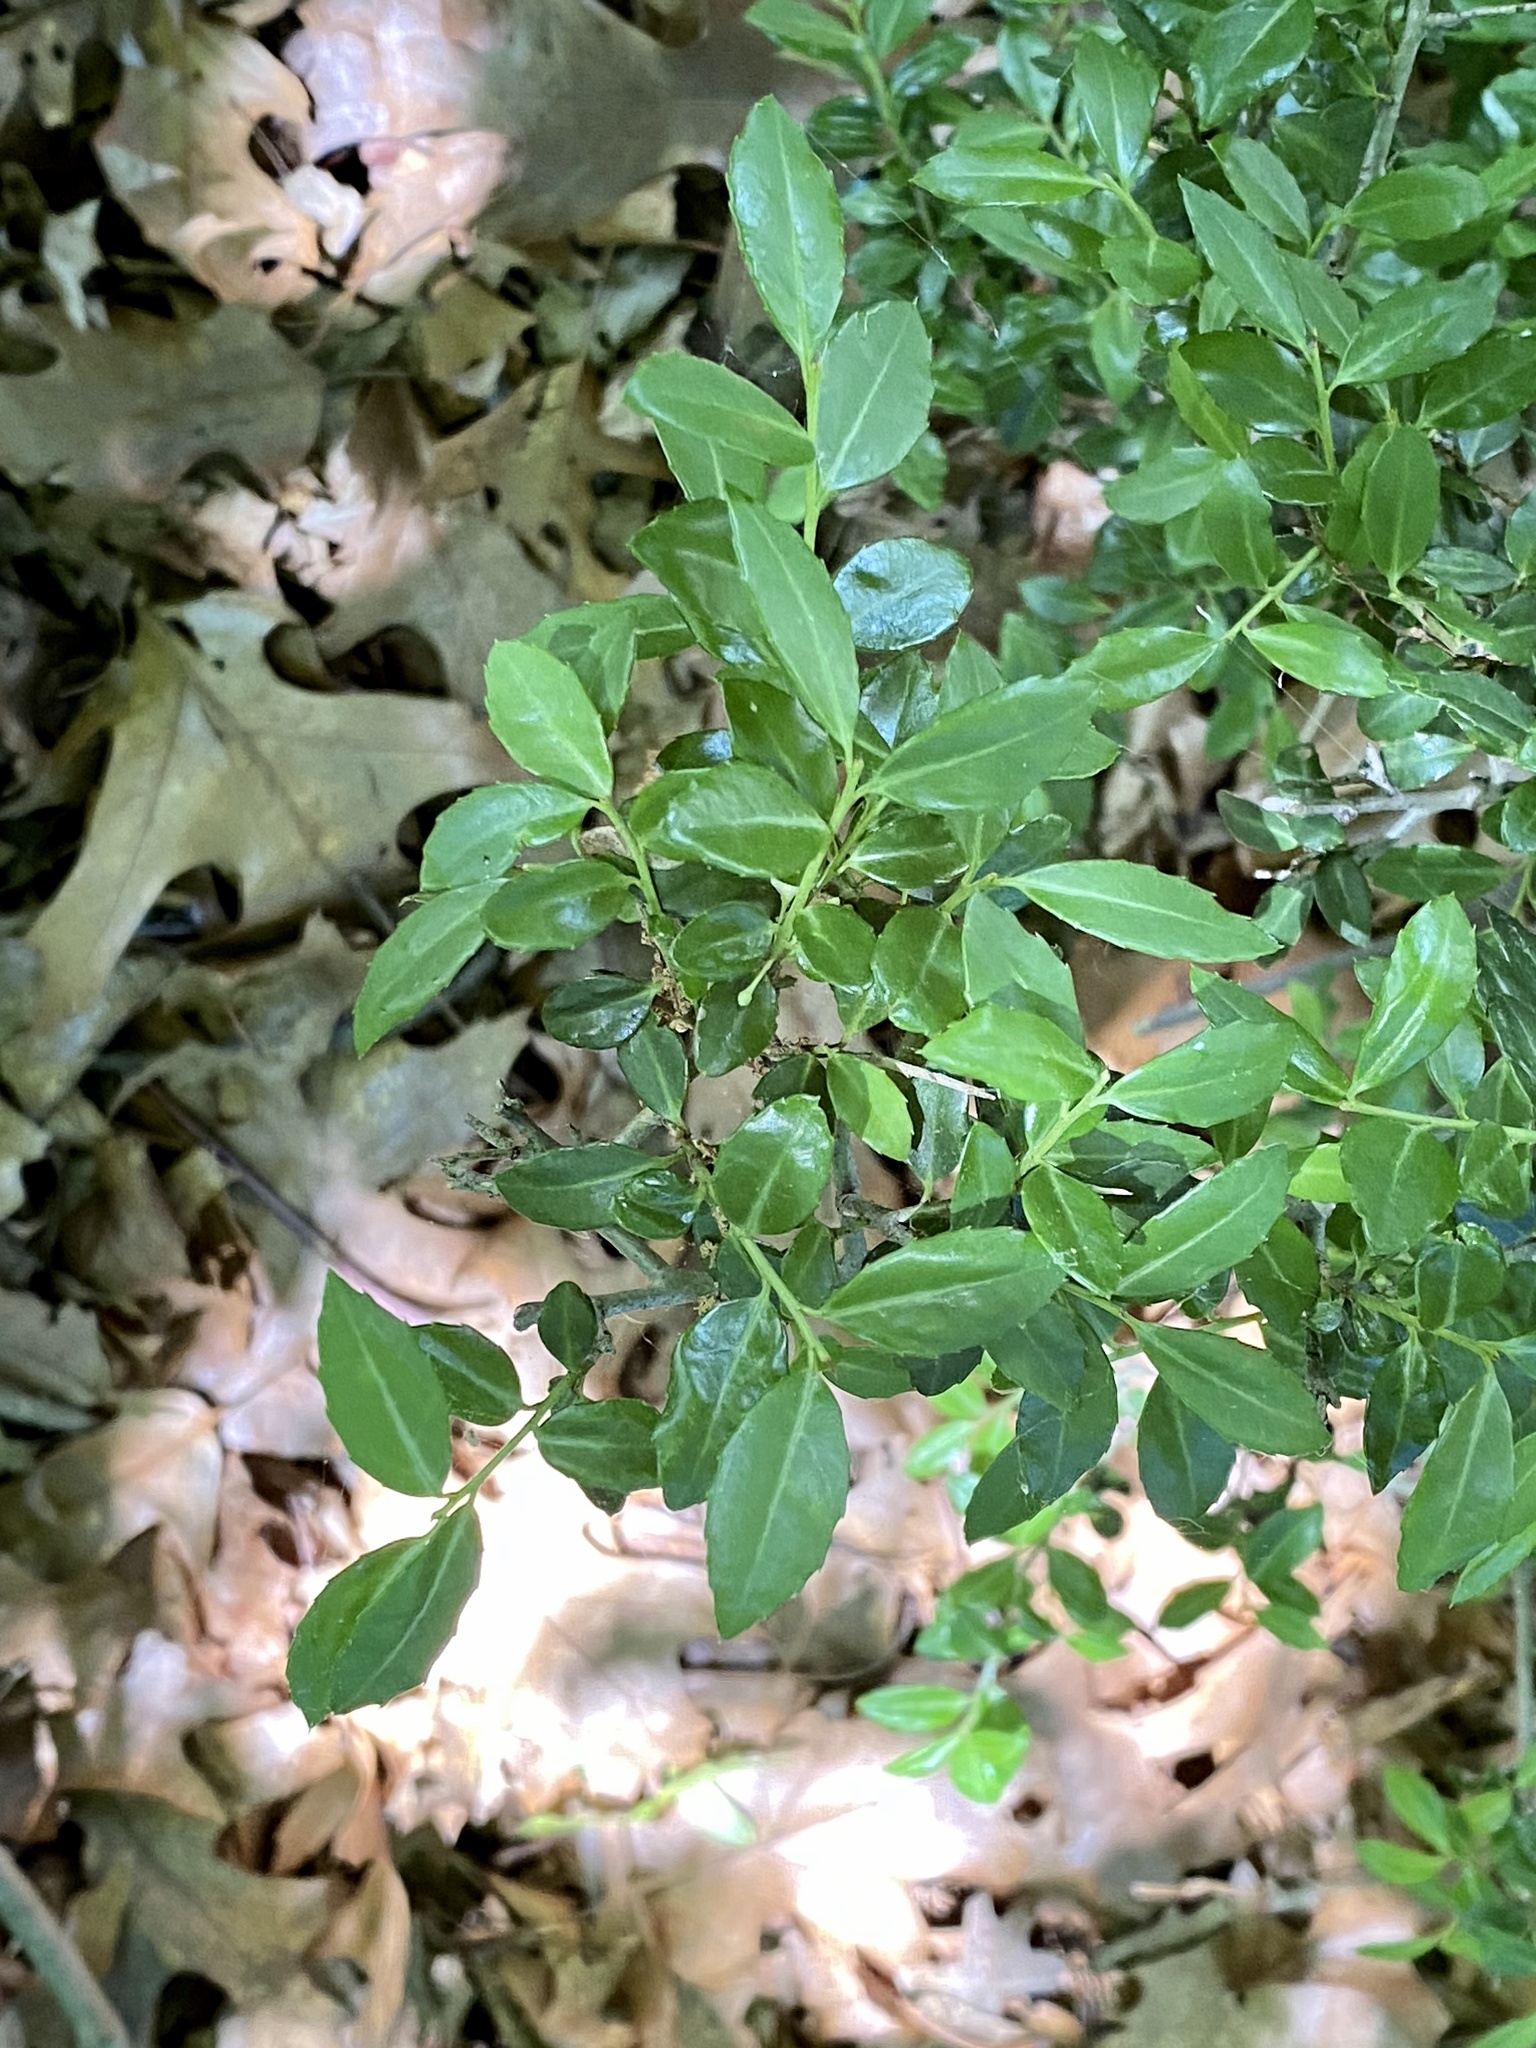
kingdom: Plantae
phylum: Tracheophyta
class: Magnoliopsida
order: Aquifoliales
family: Aquifoliaceae
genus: Ilex
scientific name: Ilex crenata
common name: Japanese holly
